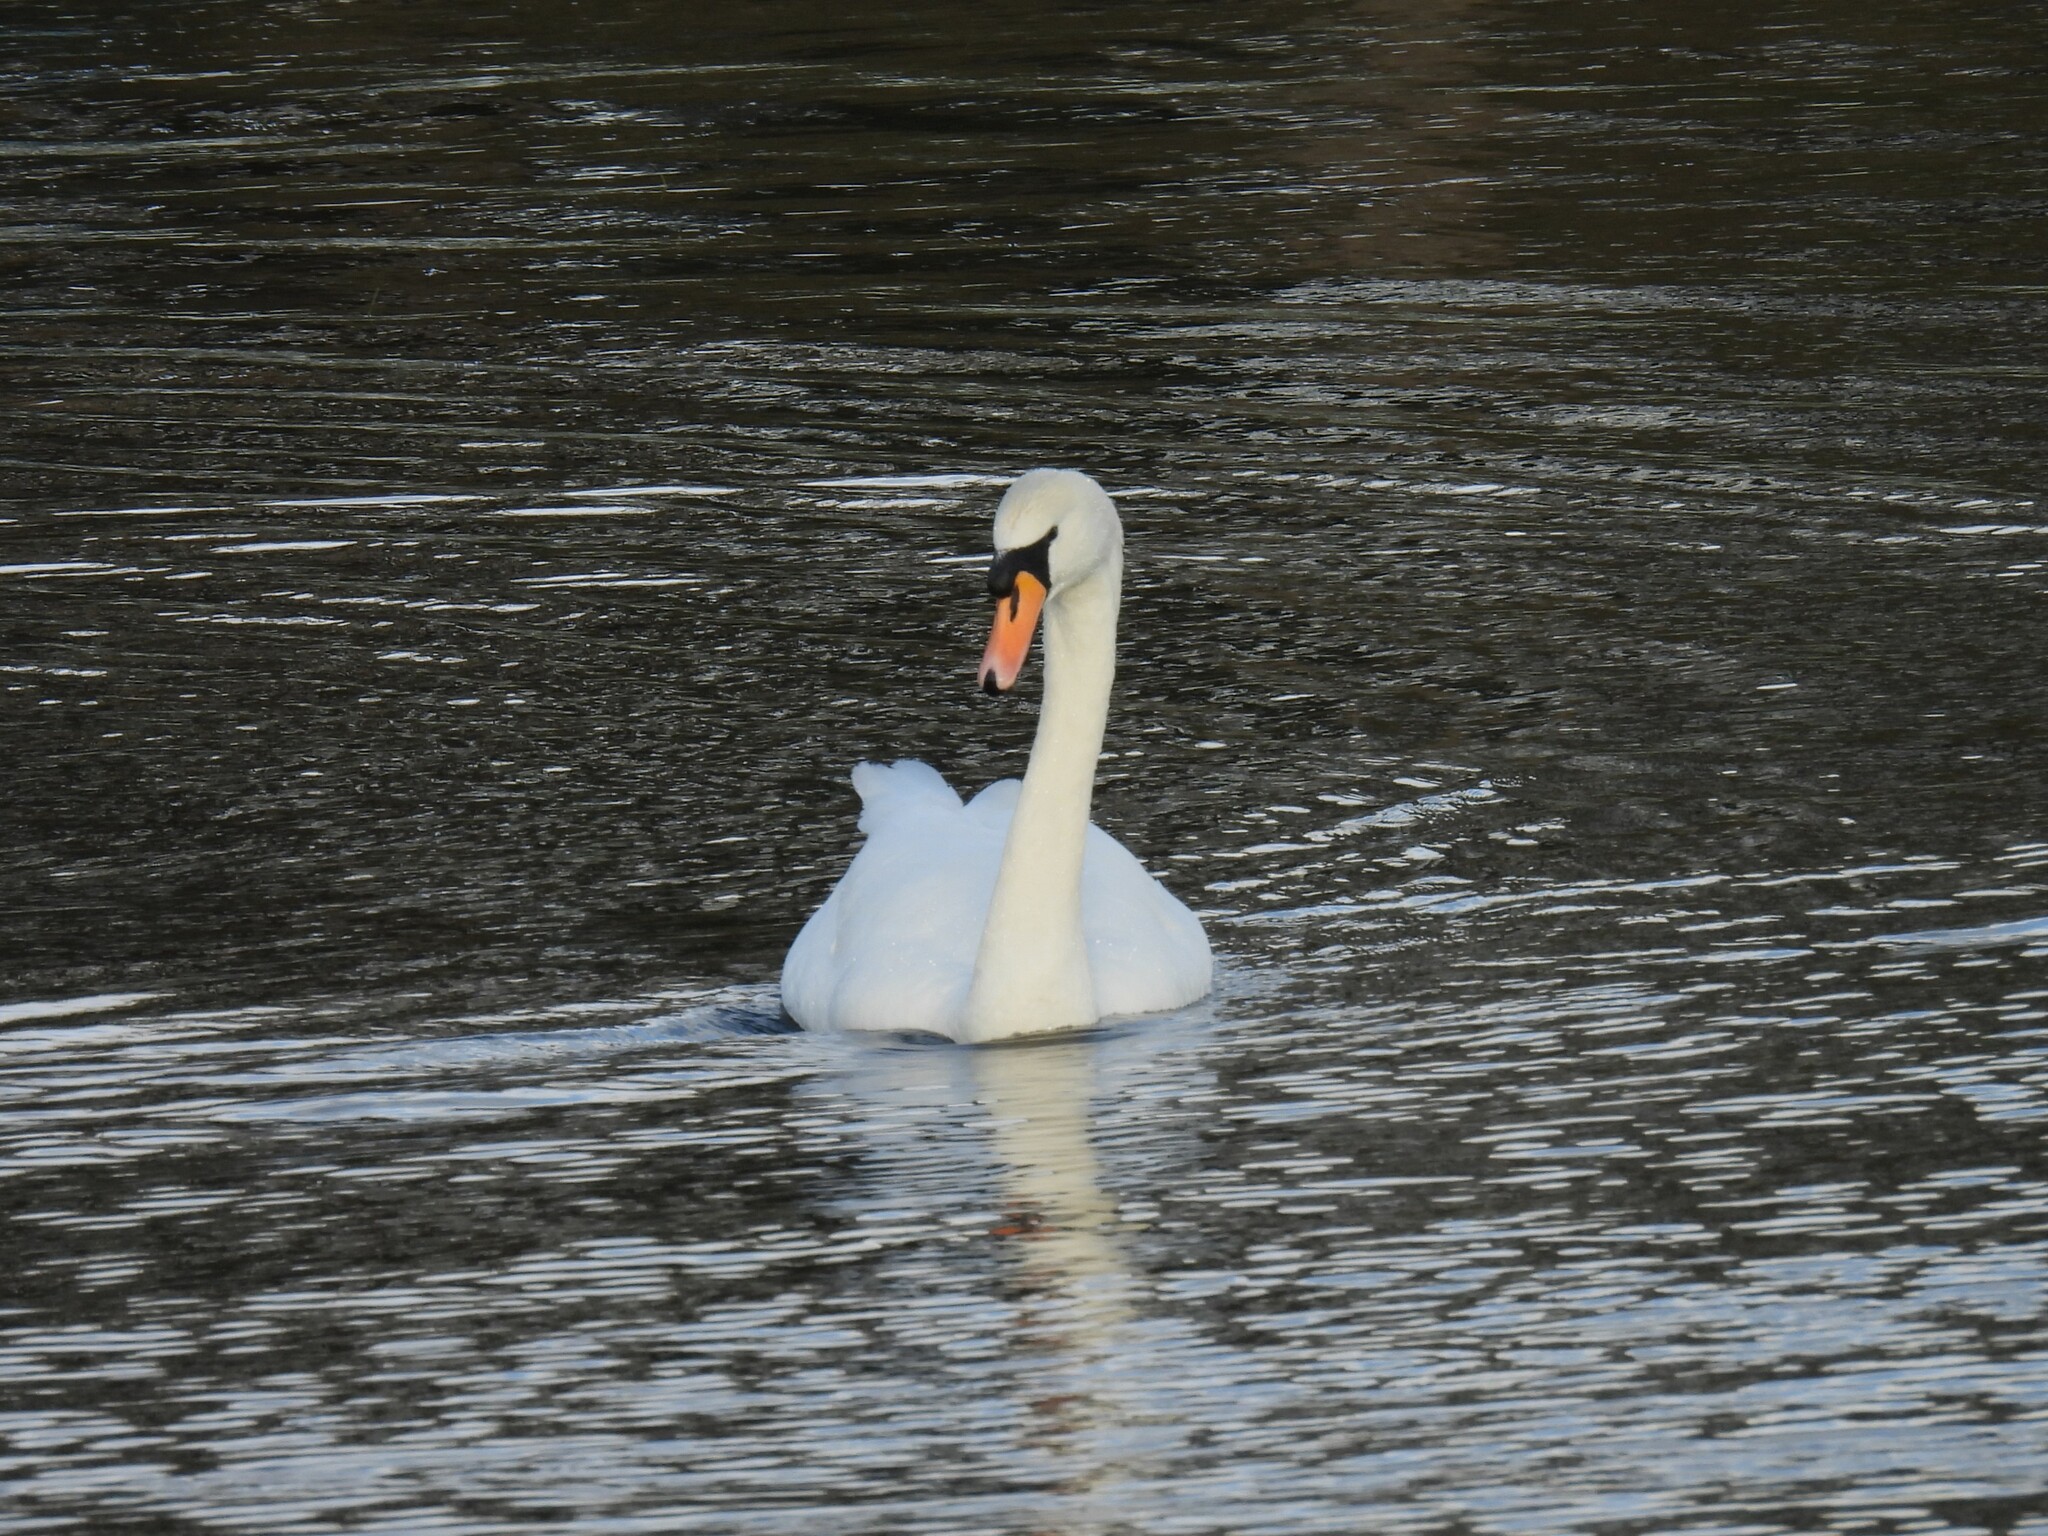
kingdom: Animalia
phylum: Chordata
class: Aves
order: Anseriformes
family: Anatidae
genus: Cygnus
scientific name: Cygnus olor
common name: Mute swan
